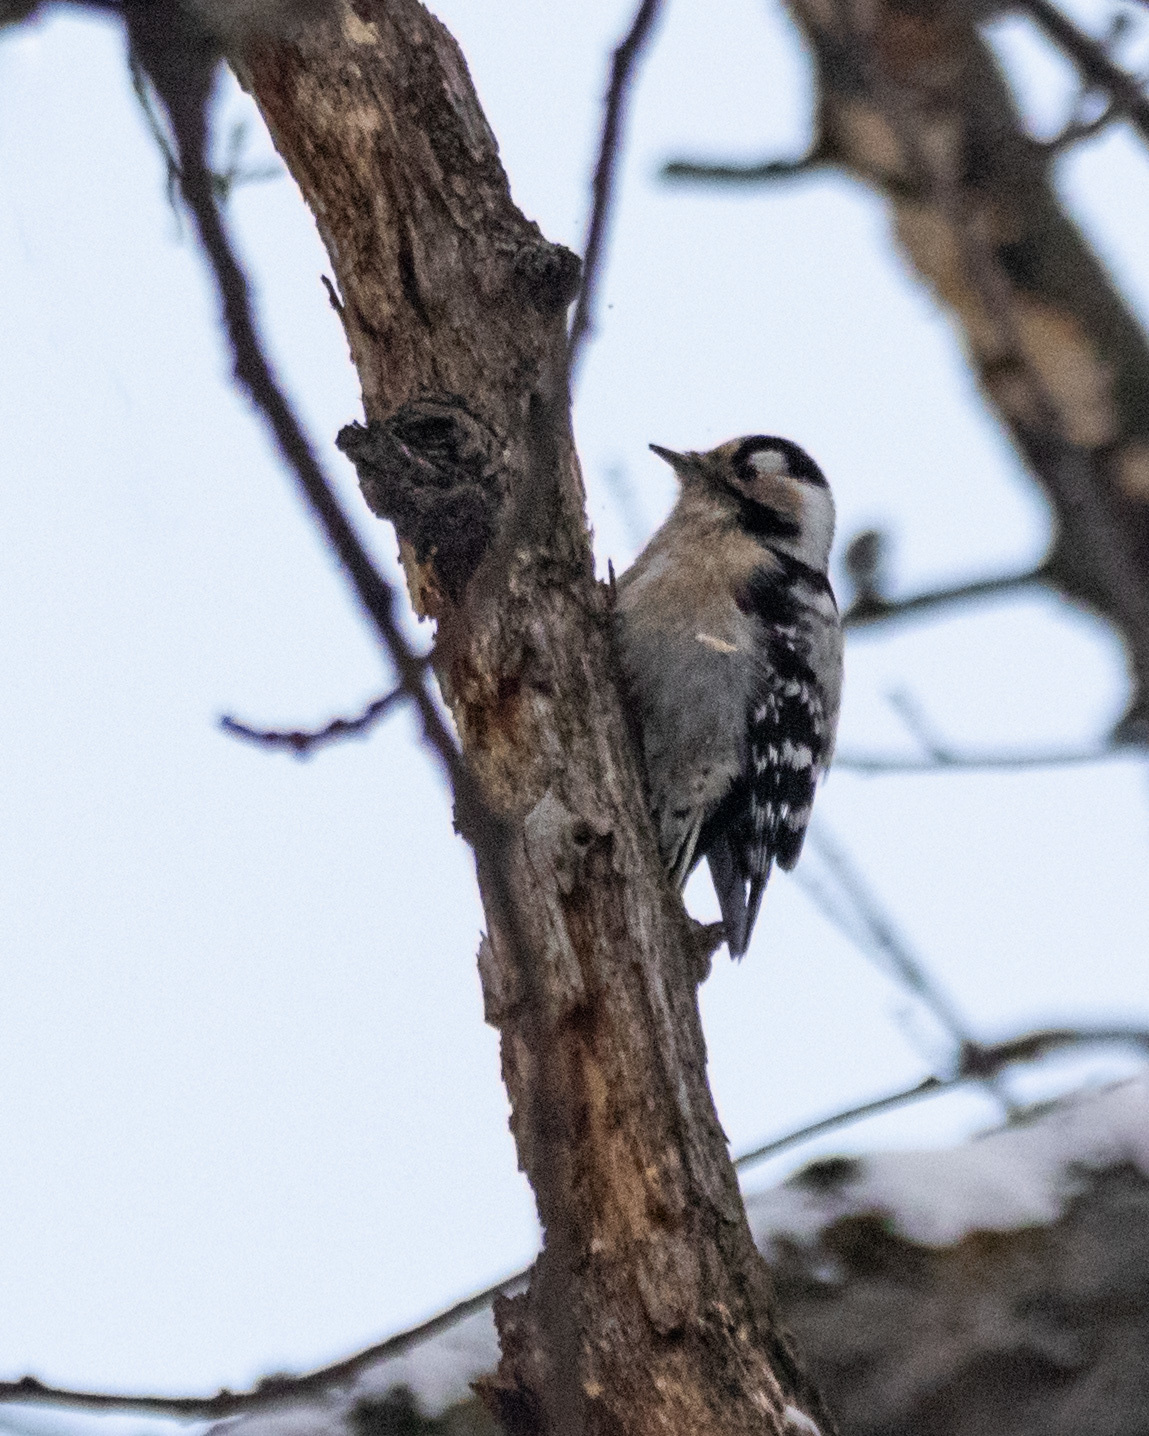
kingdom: Animalia
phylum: Chordata
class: Aves
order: Piciformes
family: Picidae
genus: Dryobates
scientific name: Dryobates minor
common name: Lesser spotted woodpecker
